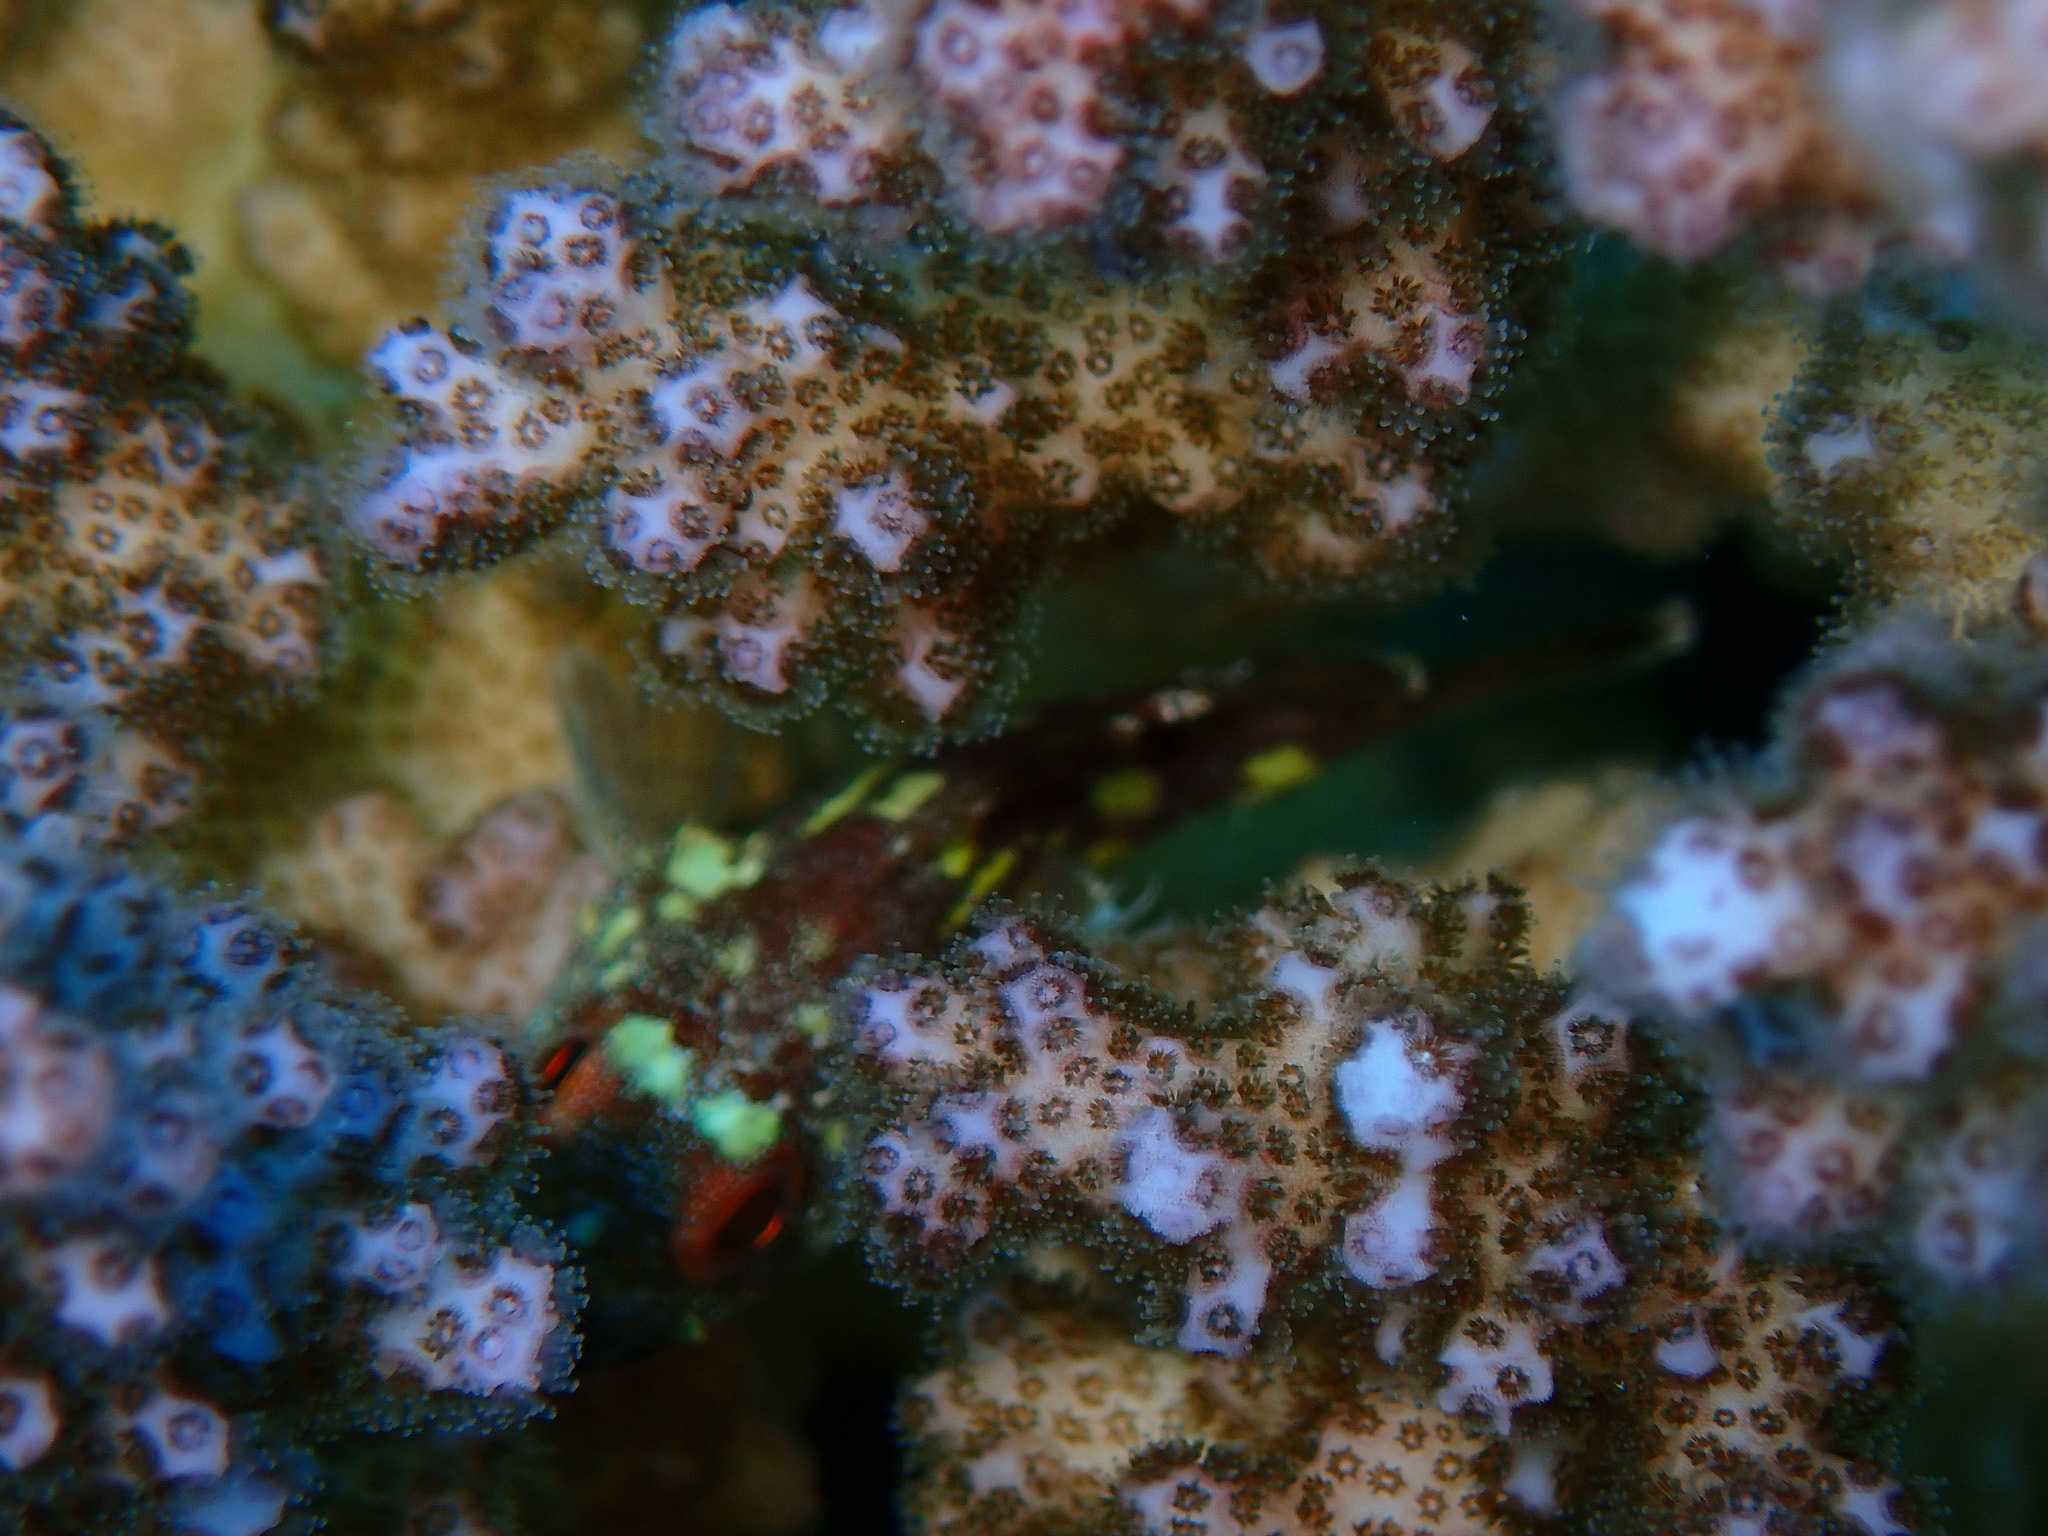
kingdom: Animalia
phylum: Cnidaria
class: Anthozoa
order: Scleractinia
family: Pocilloporidae
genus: Pocillopora
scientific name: Pocillopora verrucosa
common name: Cauliflower coral
